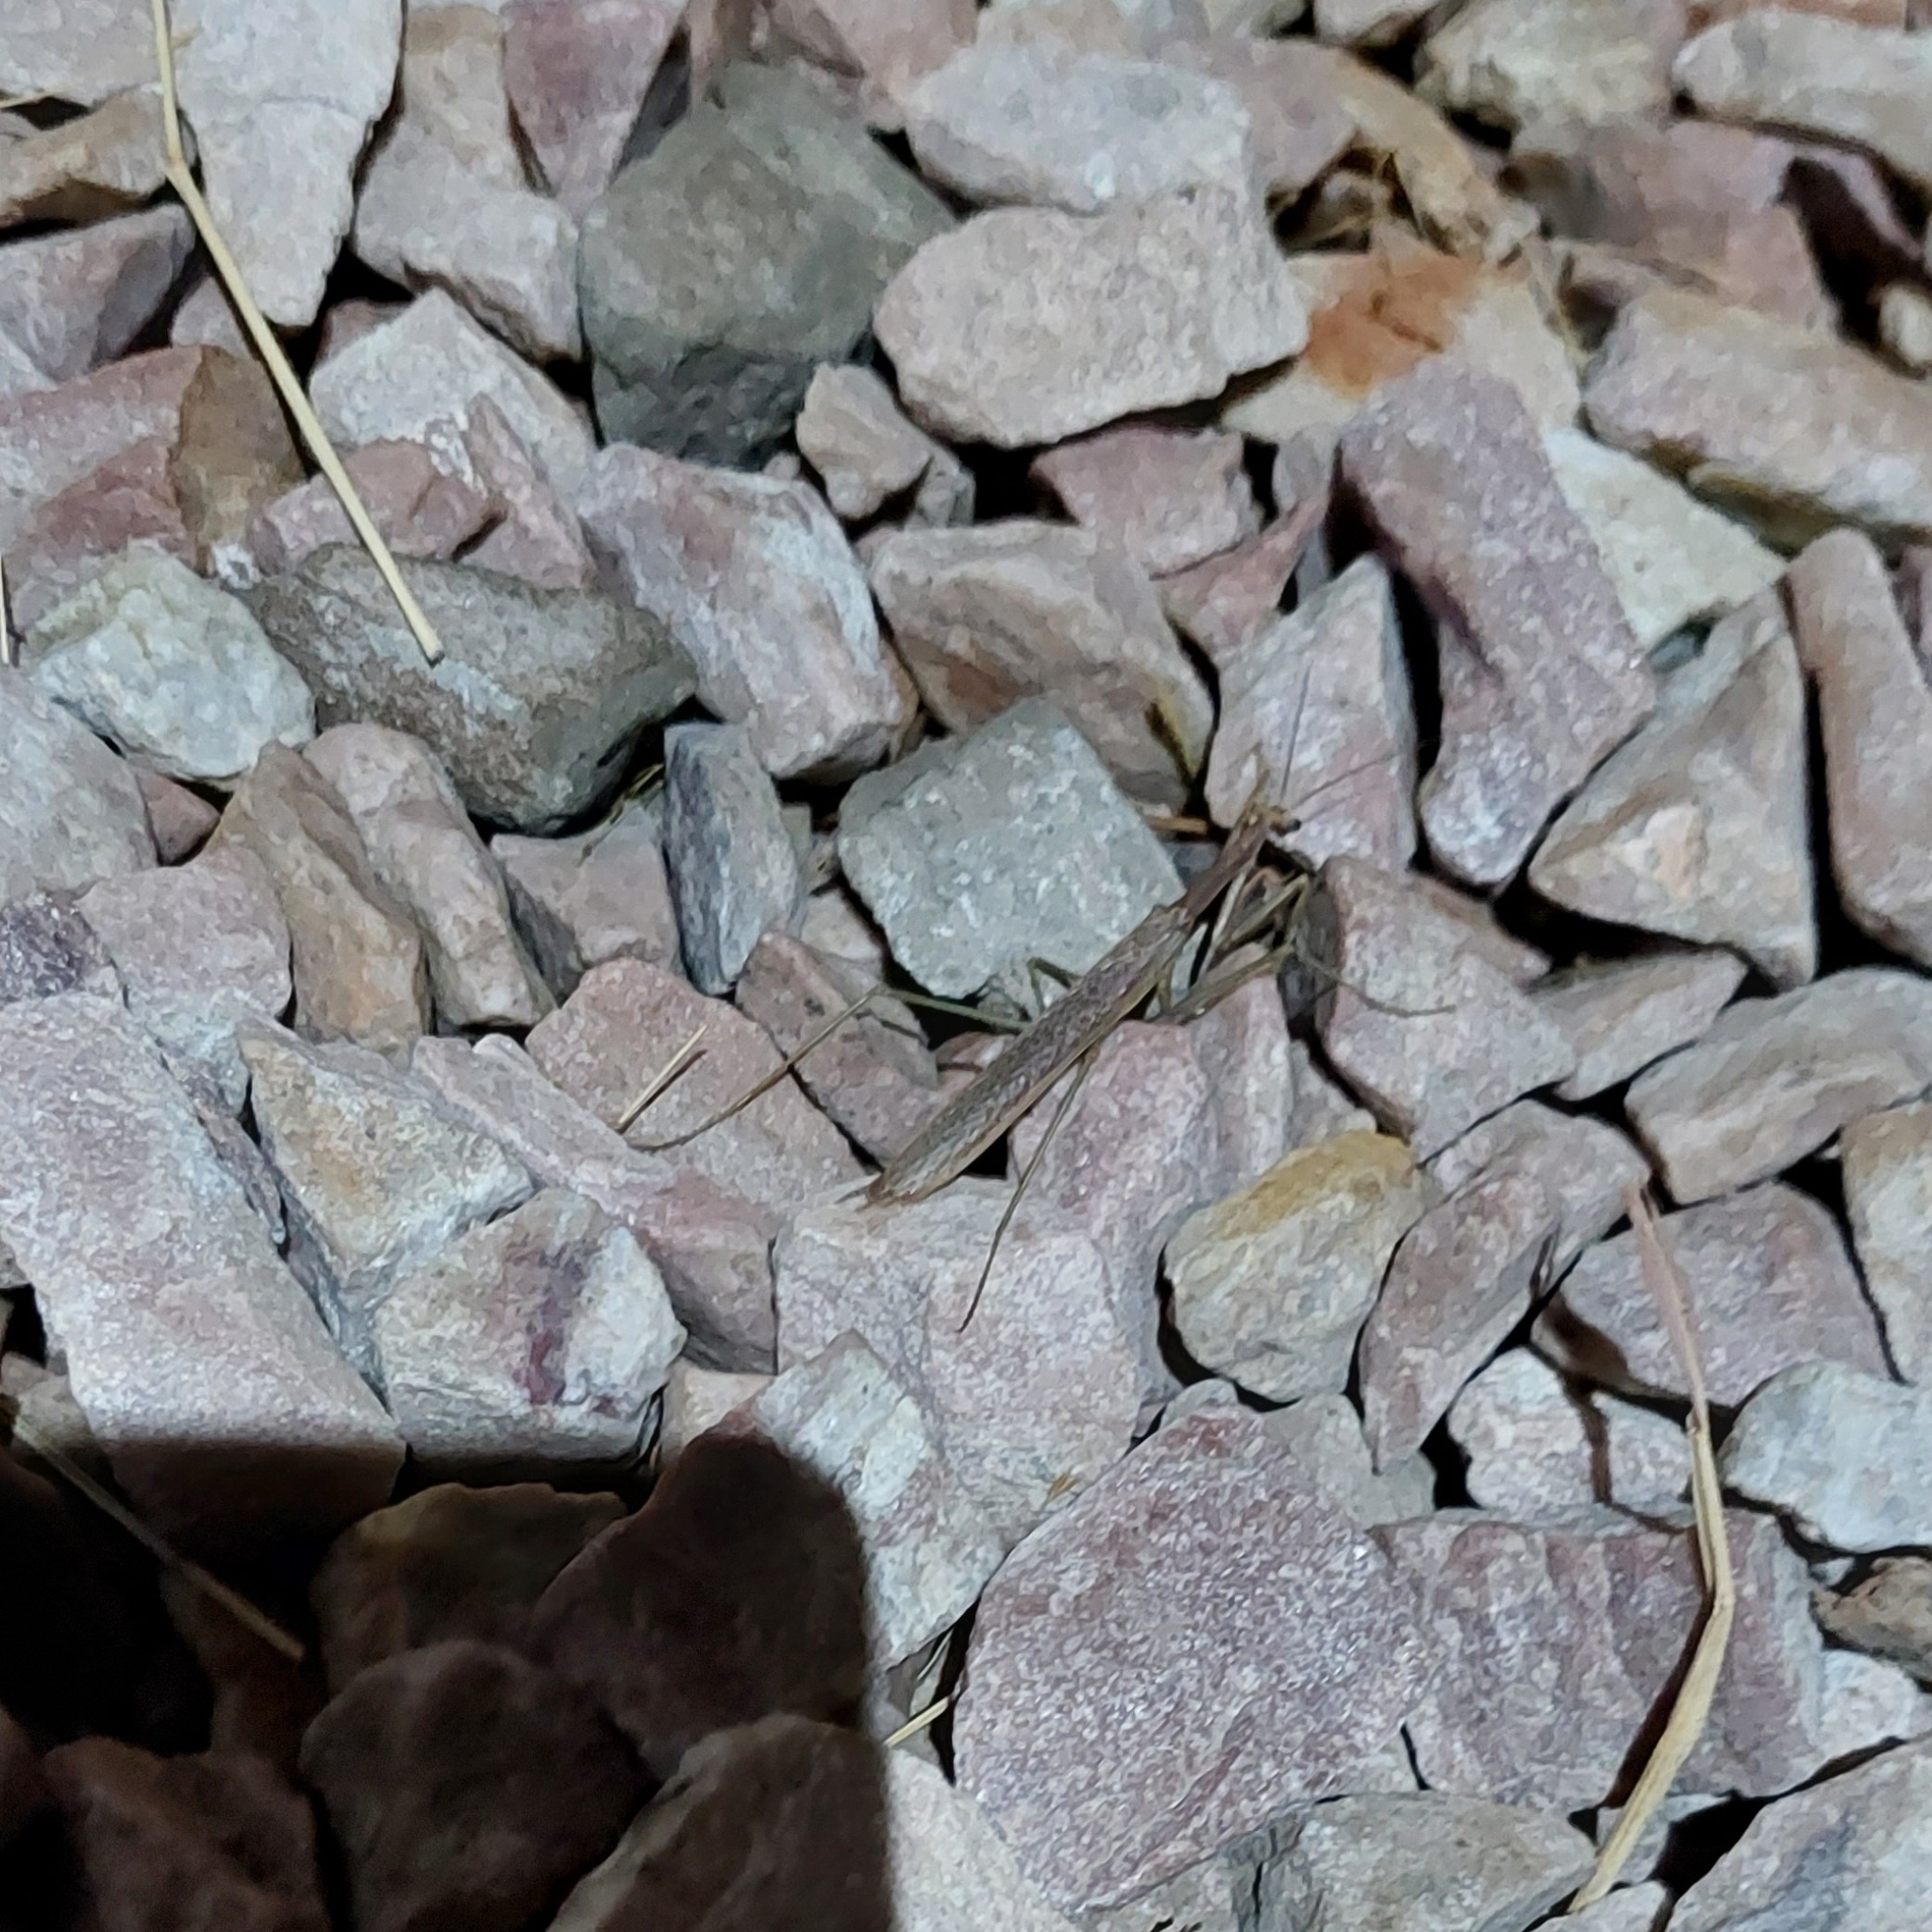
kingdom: Animalia
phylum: Arthropoda
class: Insecta
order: Mantodea
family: Coptopterygidae
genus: Coptopteryx
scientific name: Coptopteryx gayi
